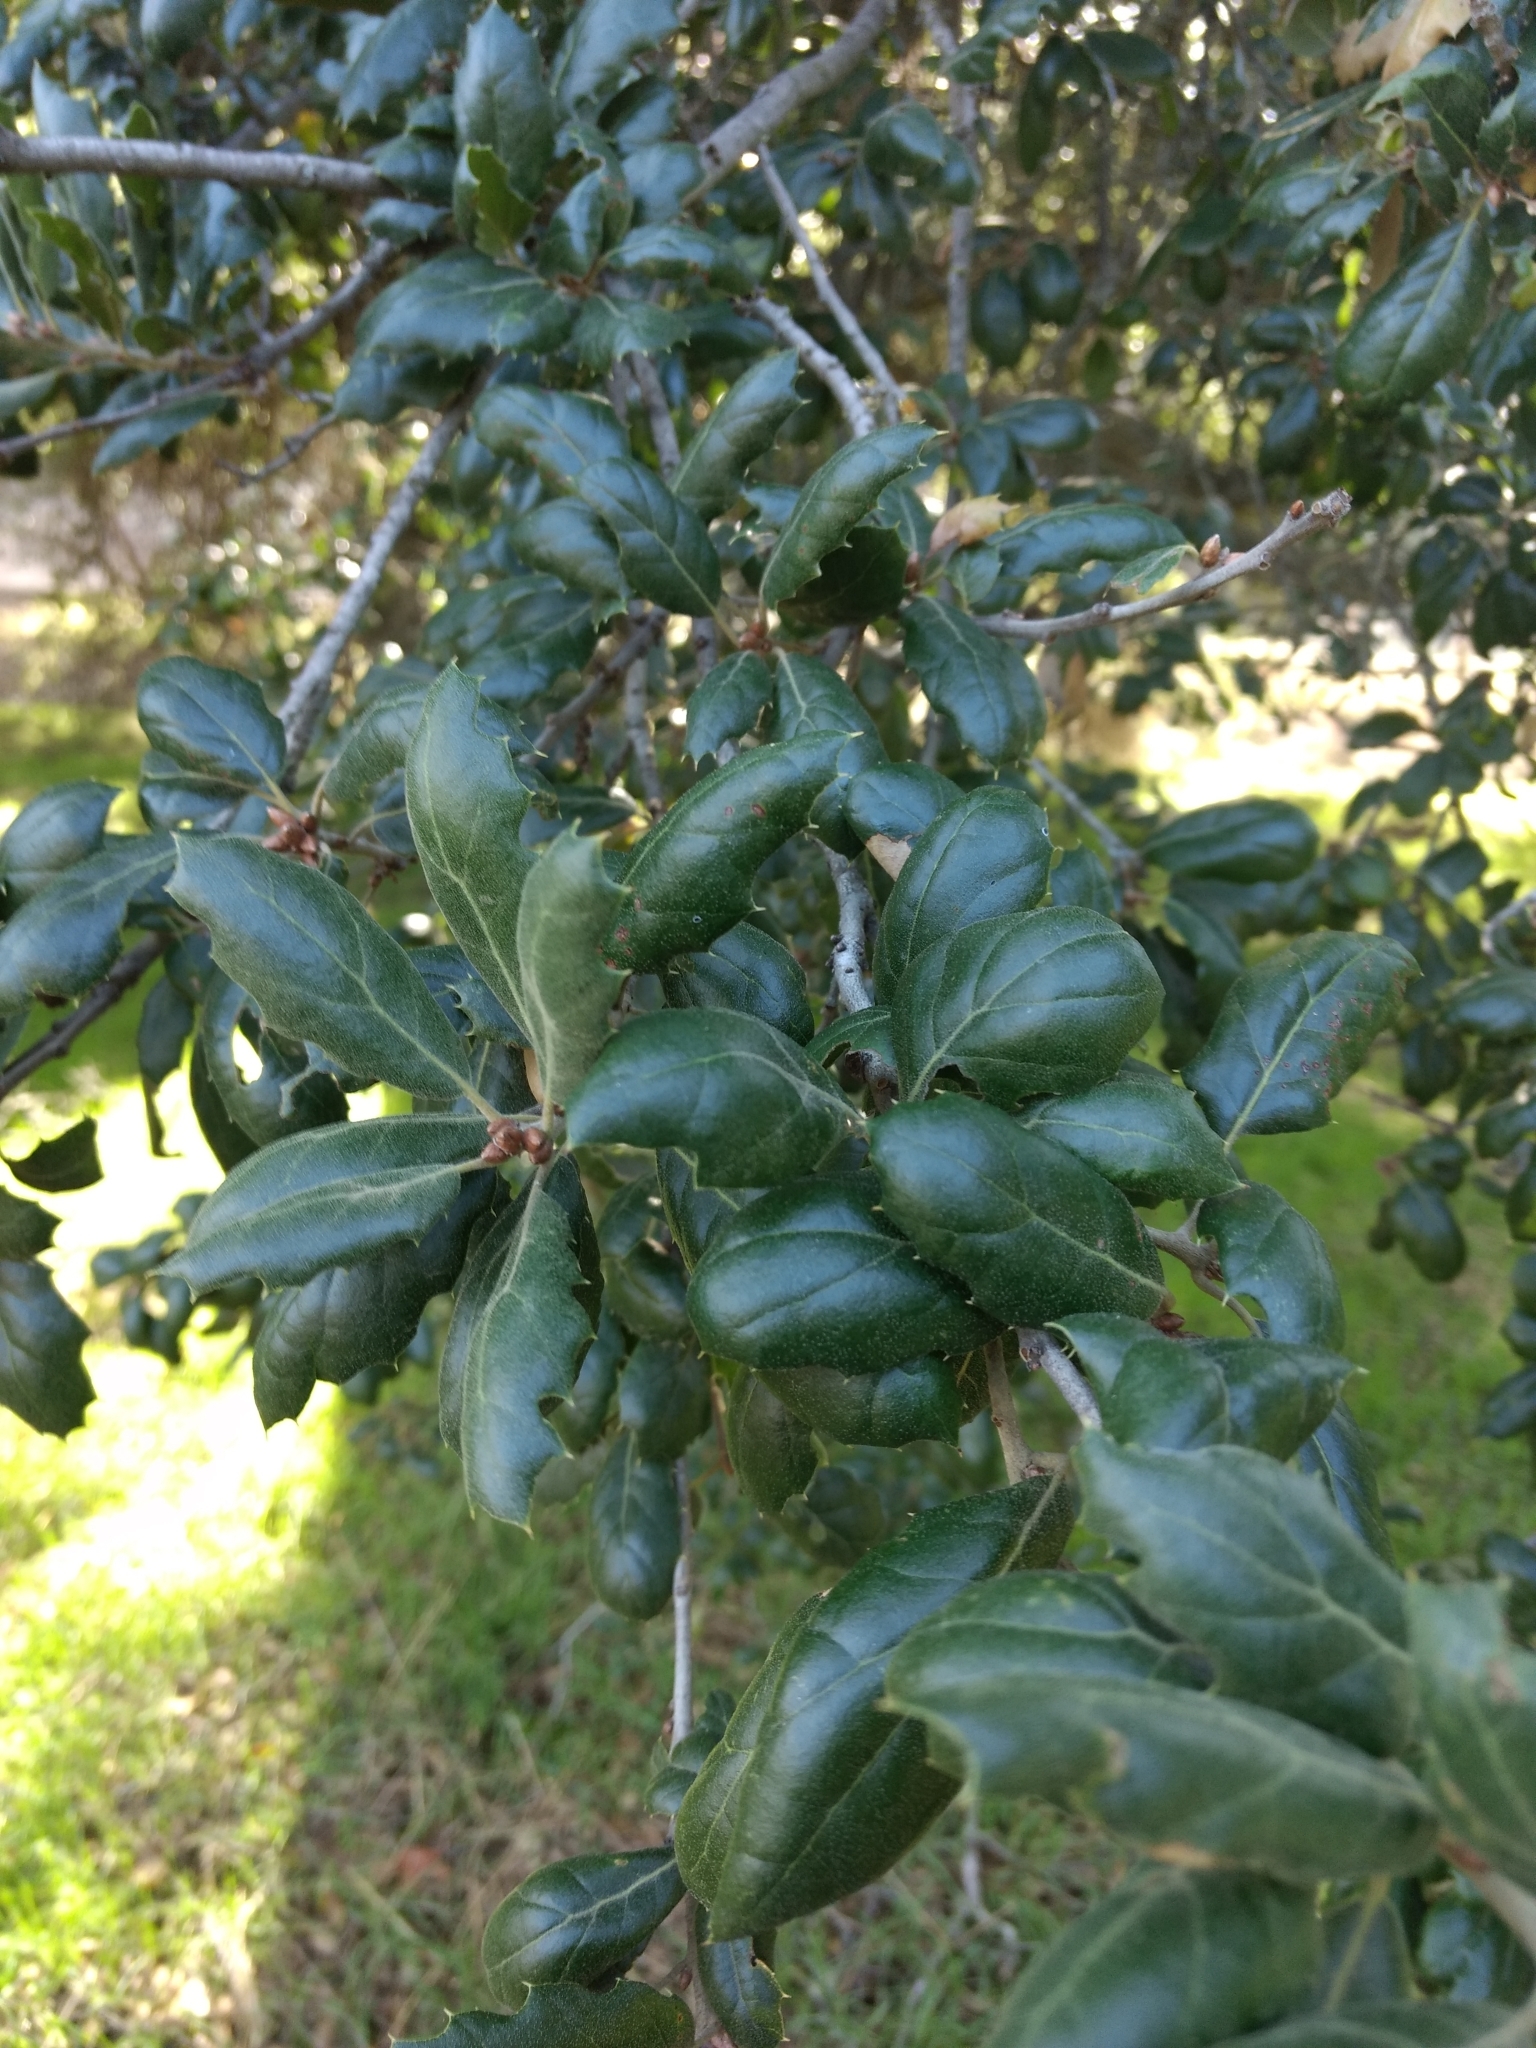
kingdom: Plantae
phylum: Tracheophyta
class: Magnoliopsida
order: Fagales
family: Fagaceae
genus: Quercus
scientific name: Quercus agrifolia
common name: California live oak
